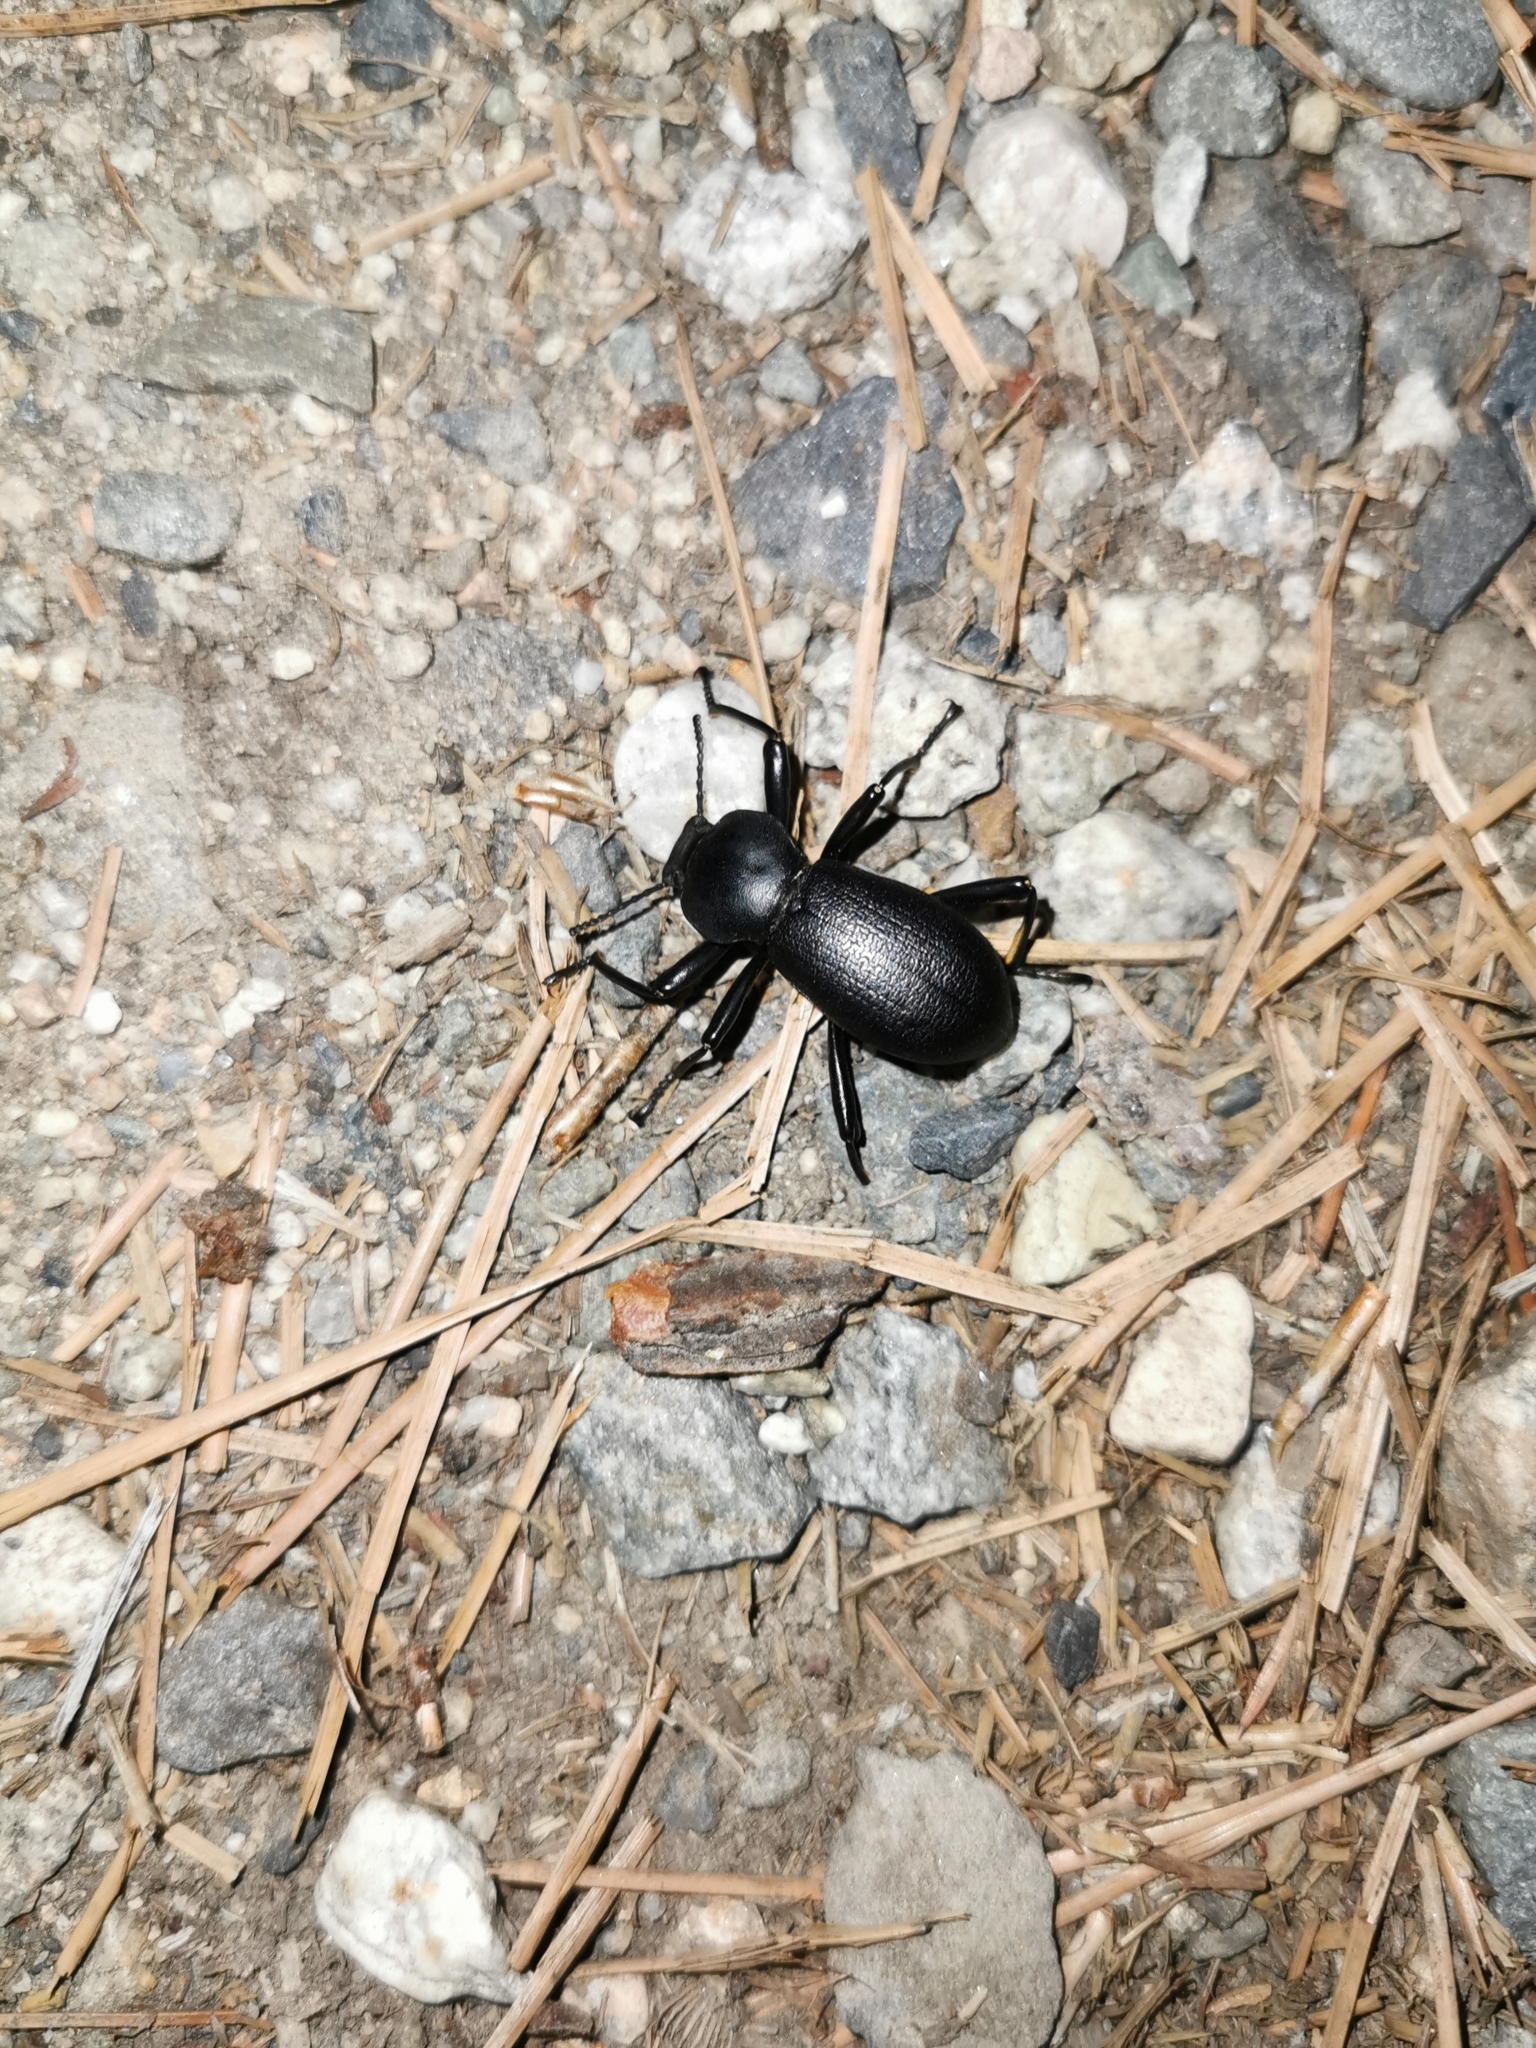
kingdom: Animalia
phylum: Arthropoda
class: Insecta
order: Coleoptera
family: Tenebrionidae
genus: Coelocnemis
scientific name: Coelocnemis dilaticollis
